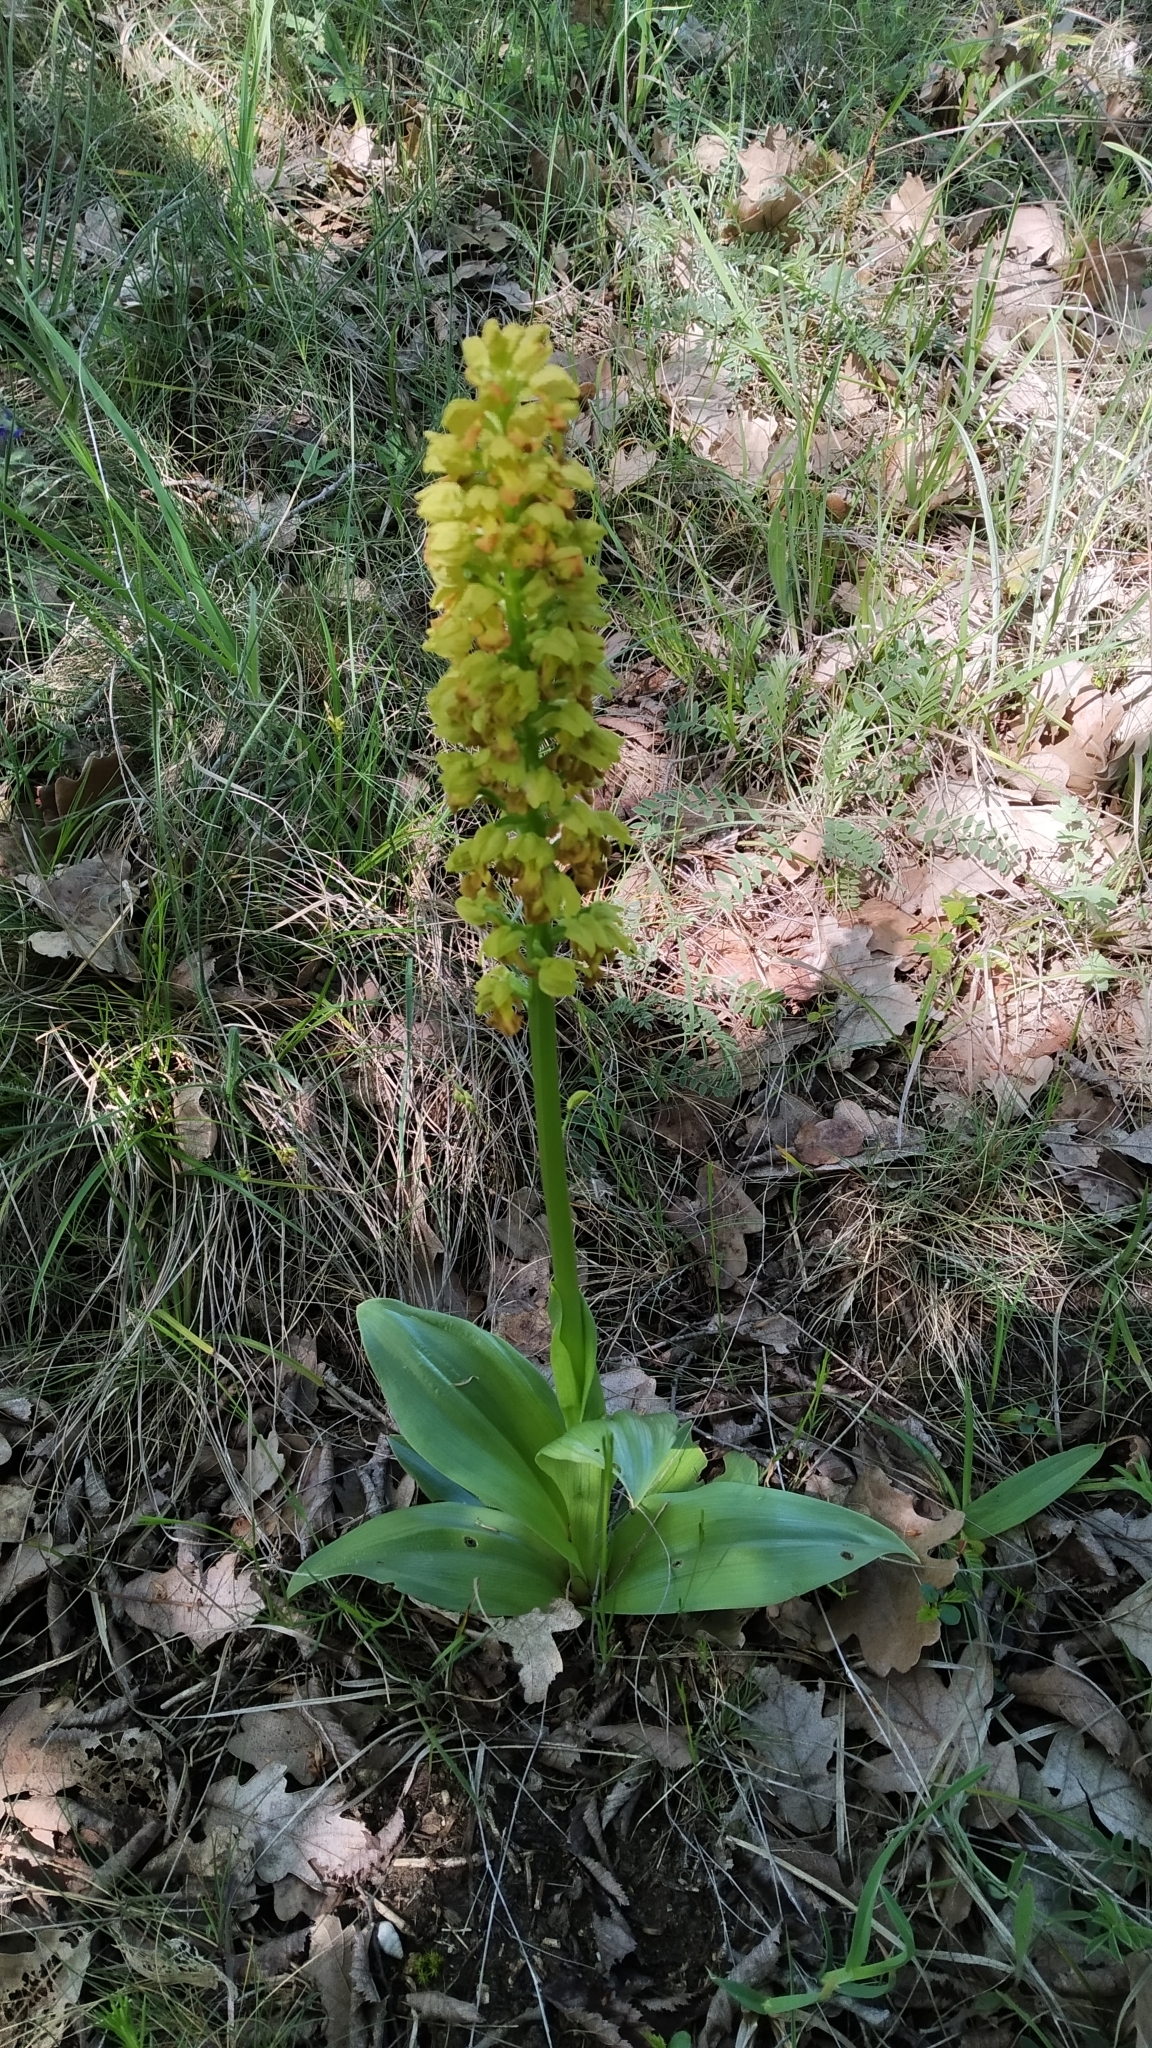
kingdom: Plantae
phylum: Tracheophyta
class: Liliopsida
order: Asparagales
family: Orchidaceae
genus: Orchis
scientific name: Orchis punctulata
